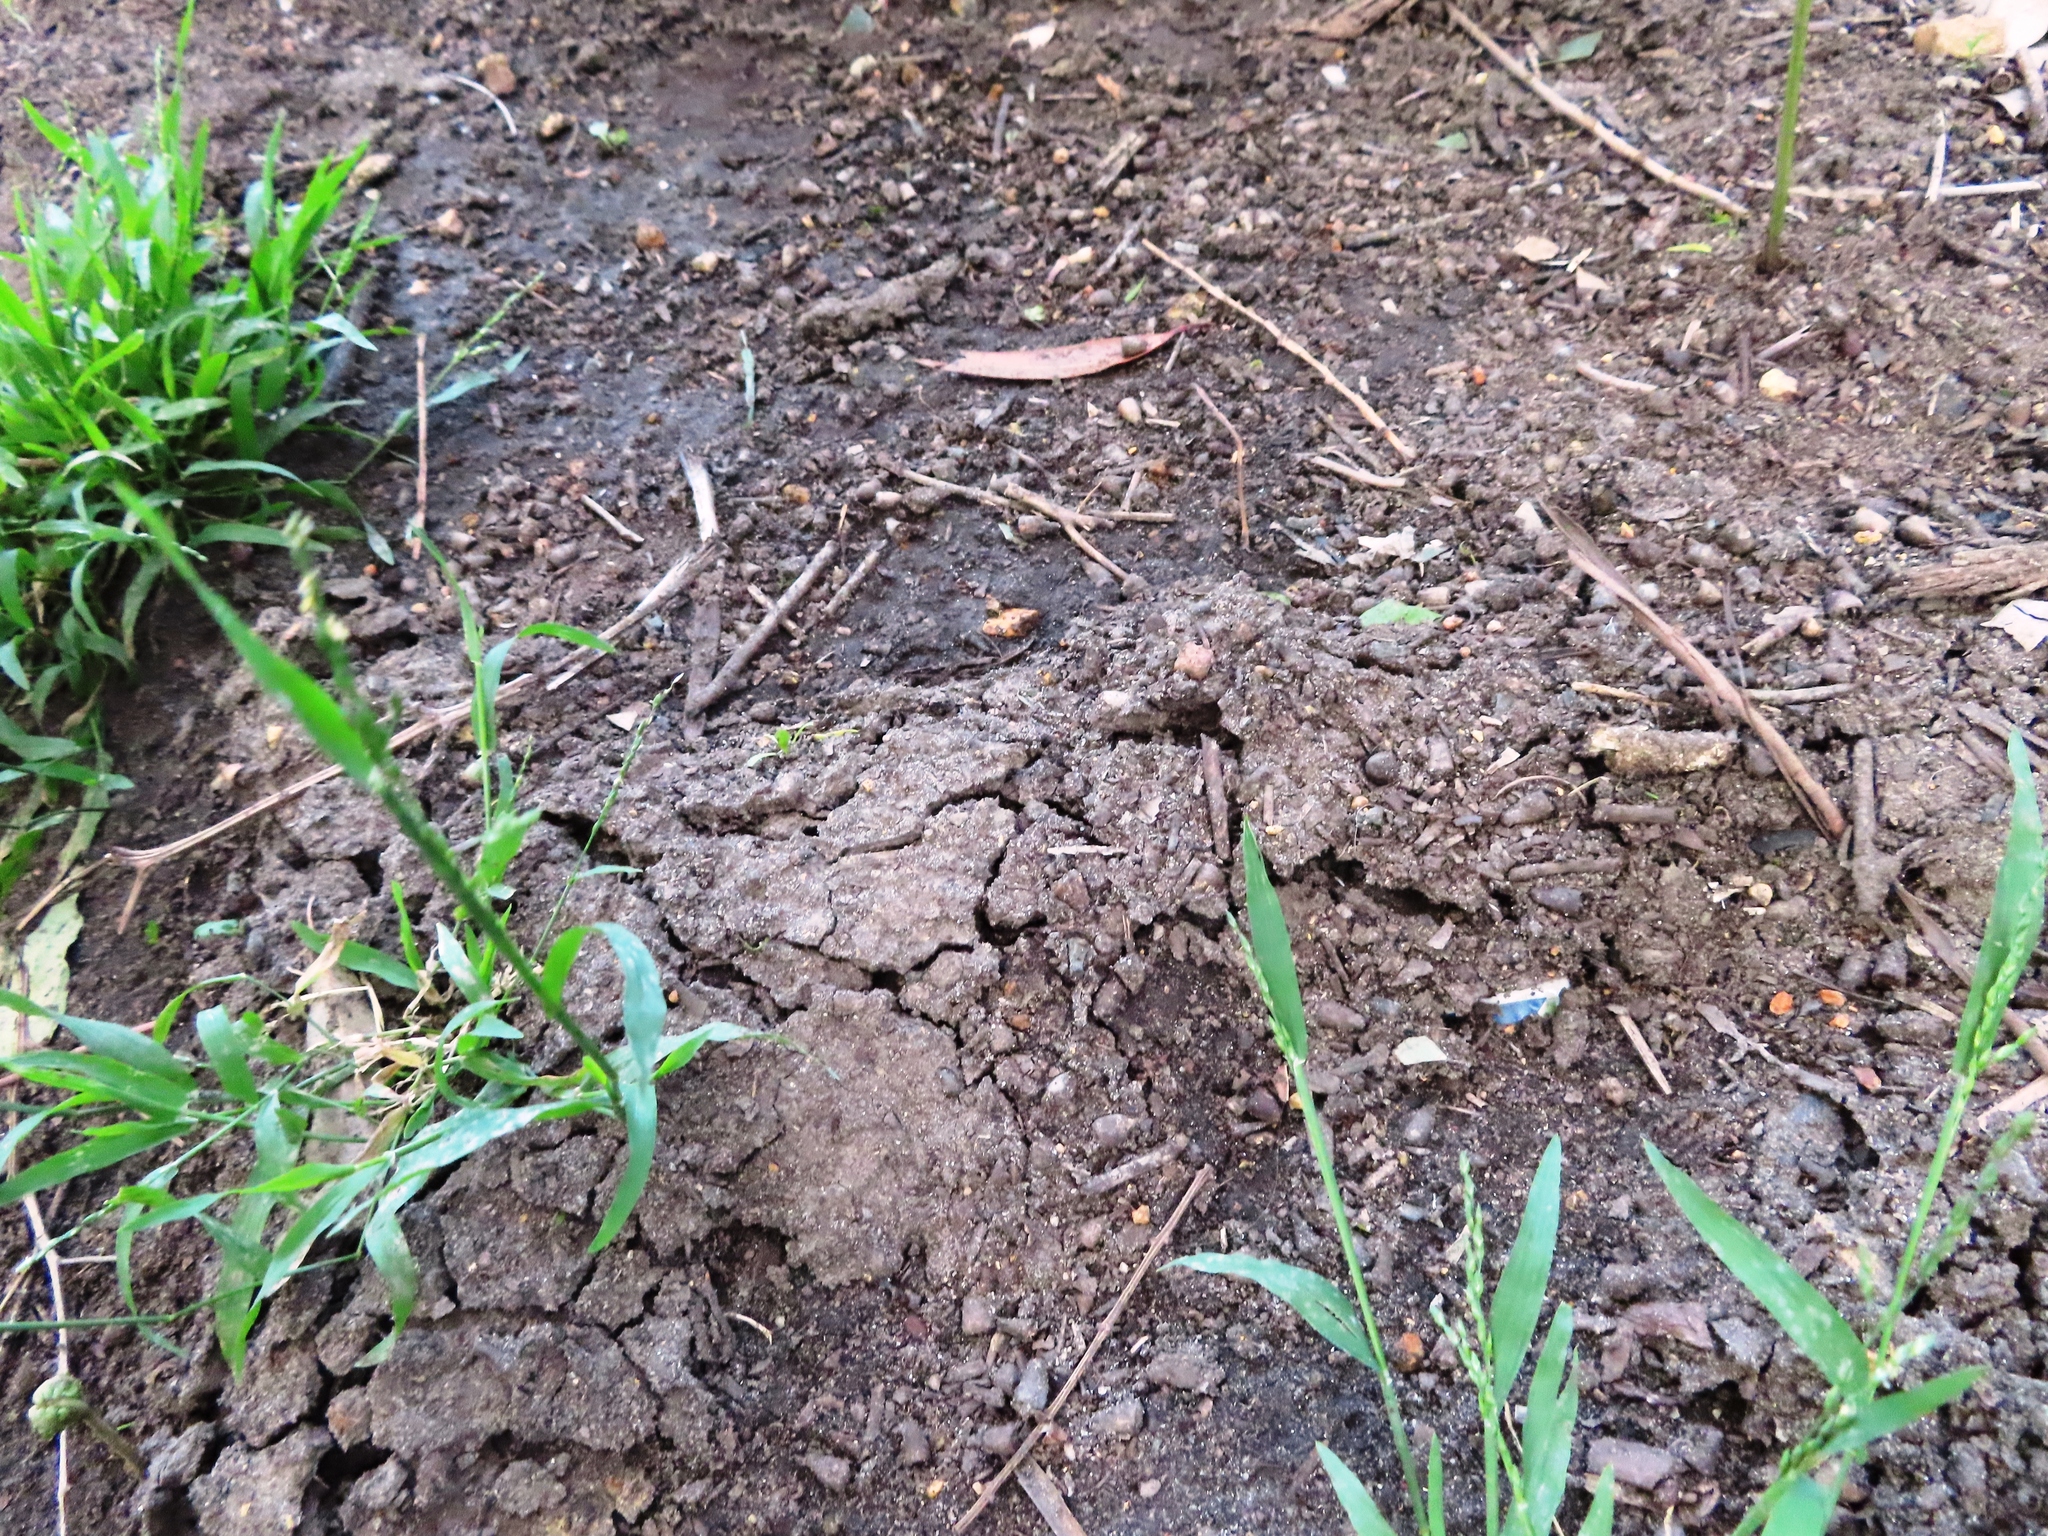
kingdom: Animalia
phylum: Chordata
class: Mammalia
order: Afrosoricida
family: Chrysochloridae
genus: Chrysochloris
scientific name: Chrysochloris asiatica
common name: Cape golden mole
